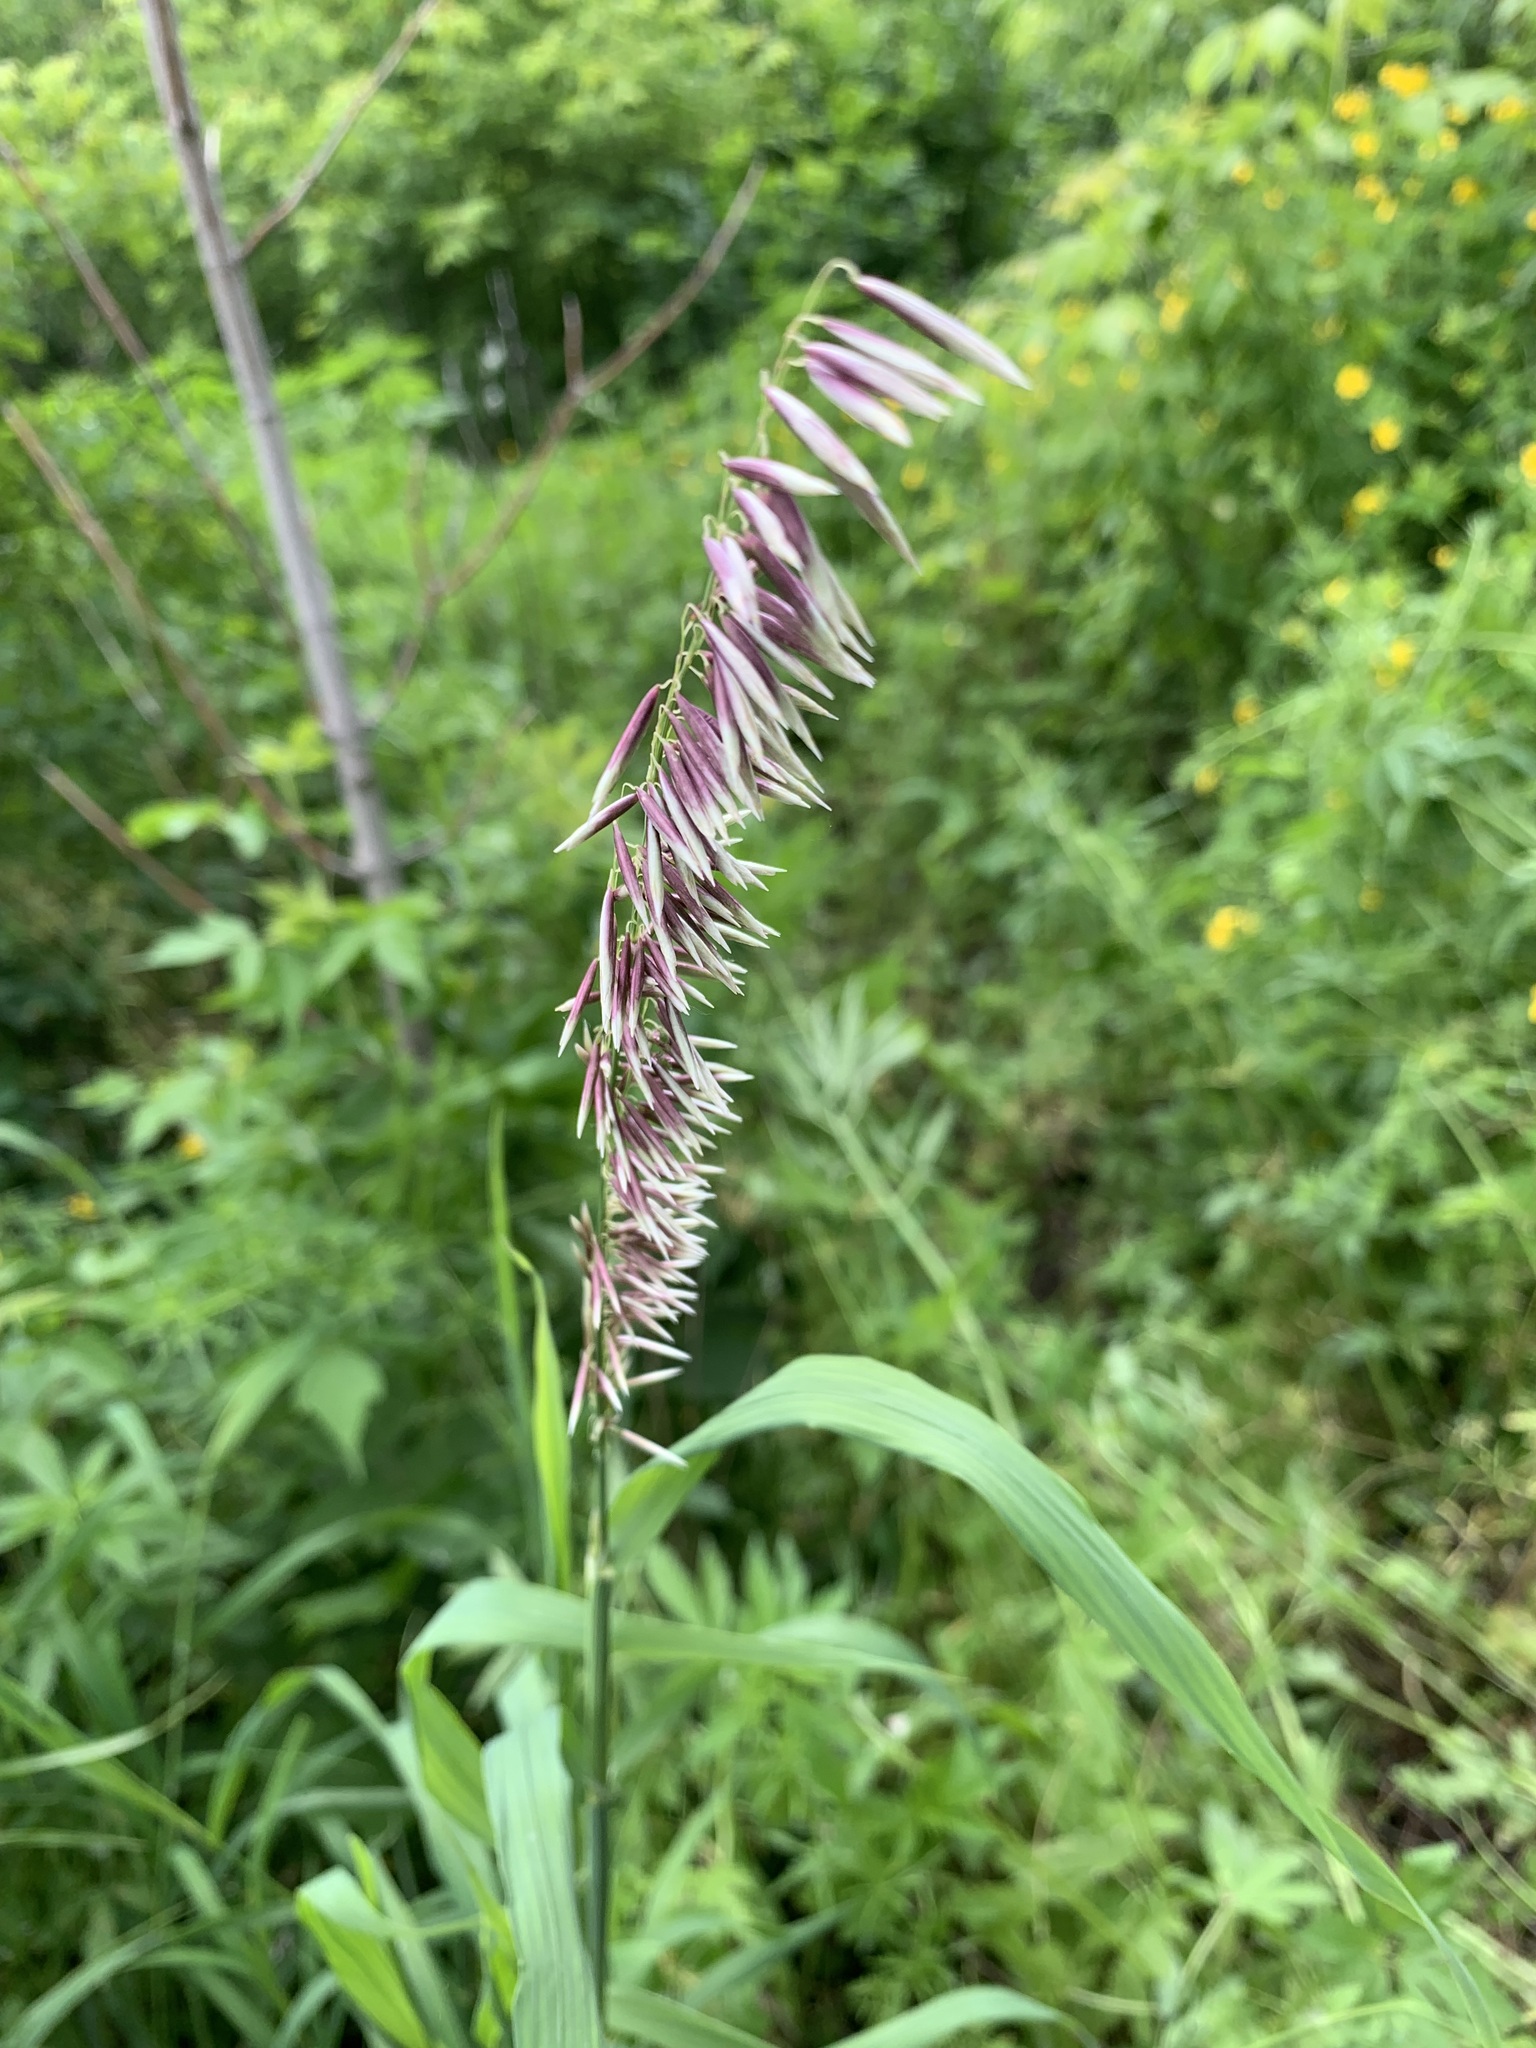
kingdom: Plantae
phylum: Tracheophyta
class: Liliopsida
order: Poales
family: Poaceae
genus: Melica
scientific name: Melica altissima
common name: Siberian melicgrass
